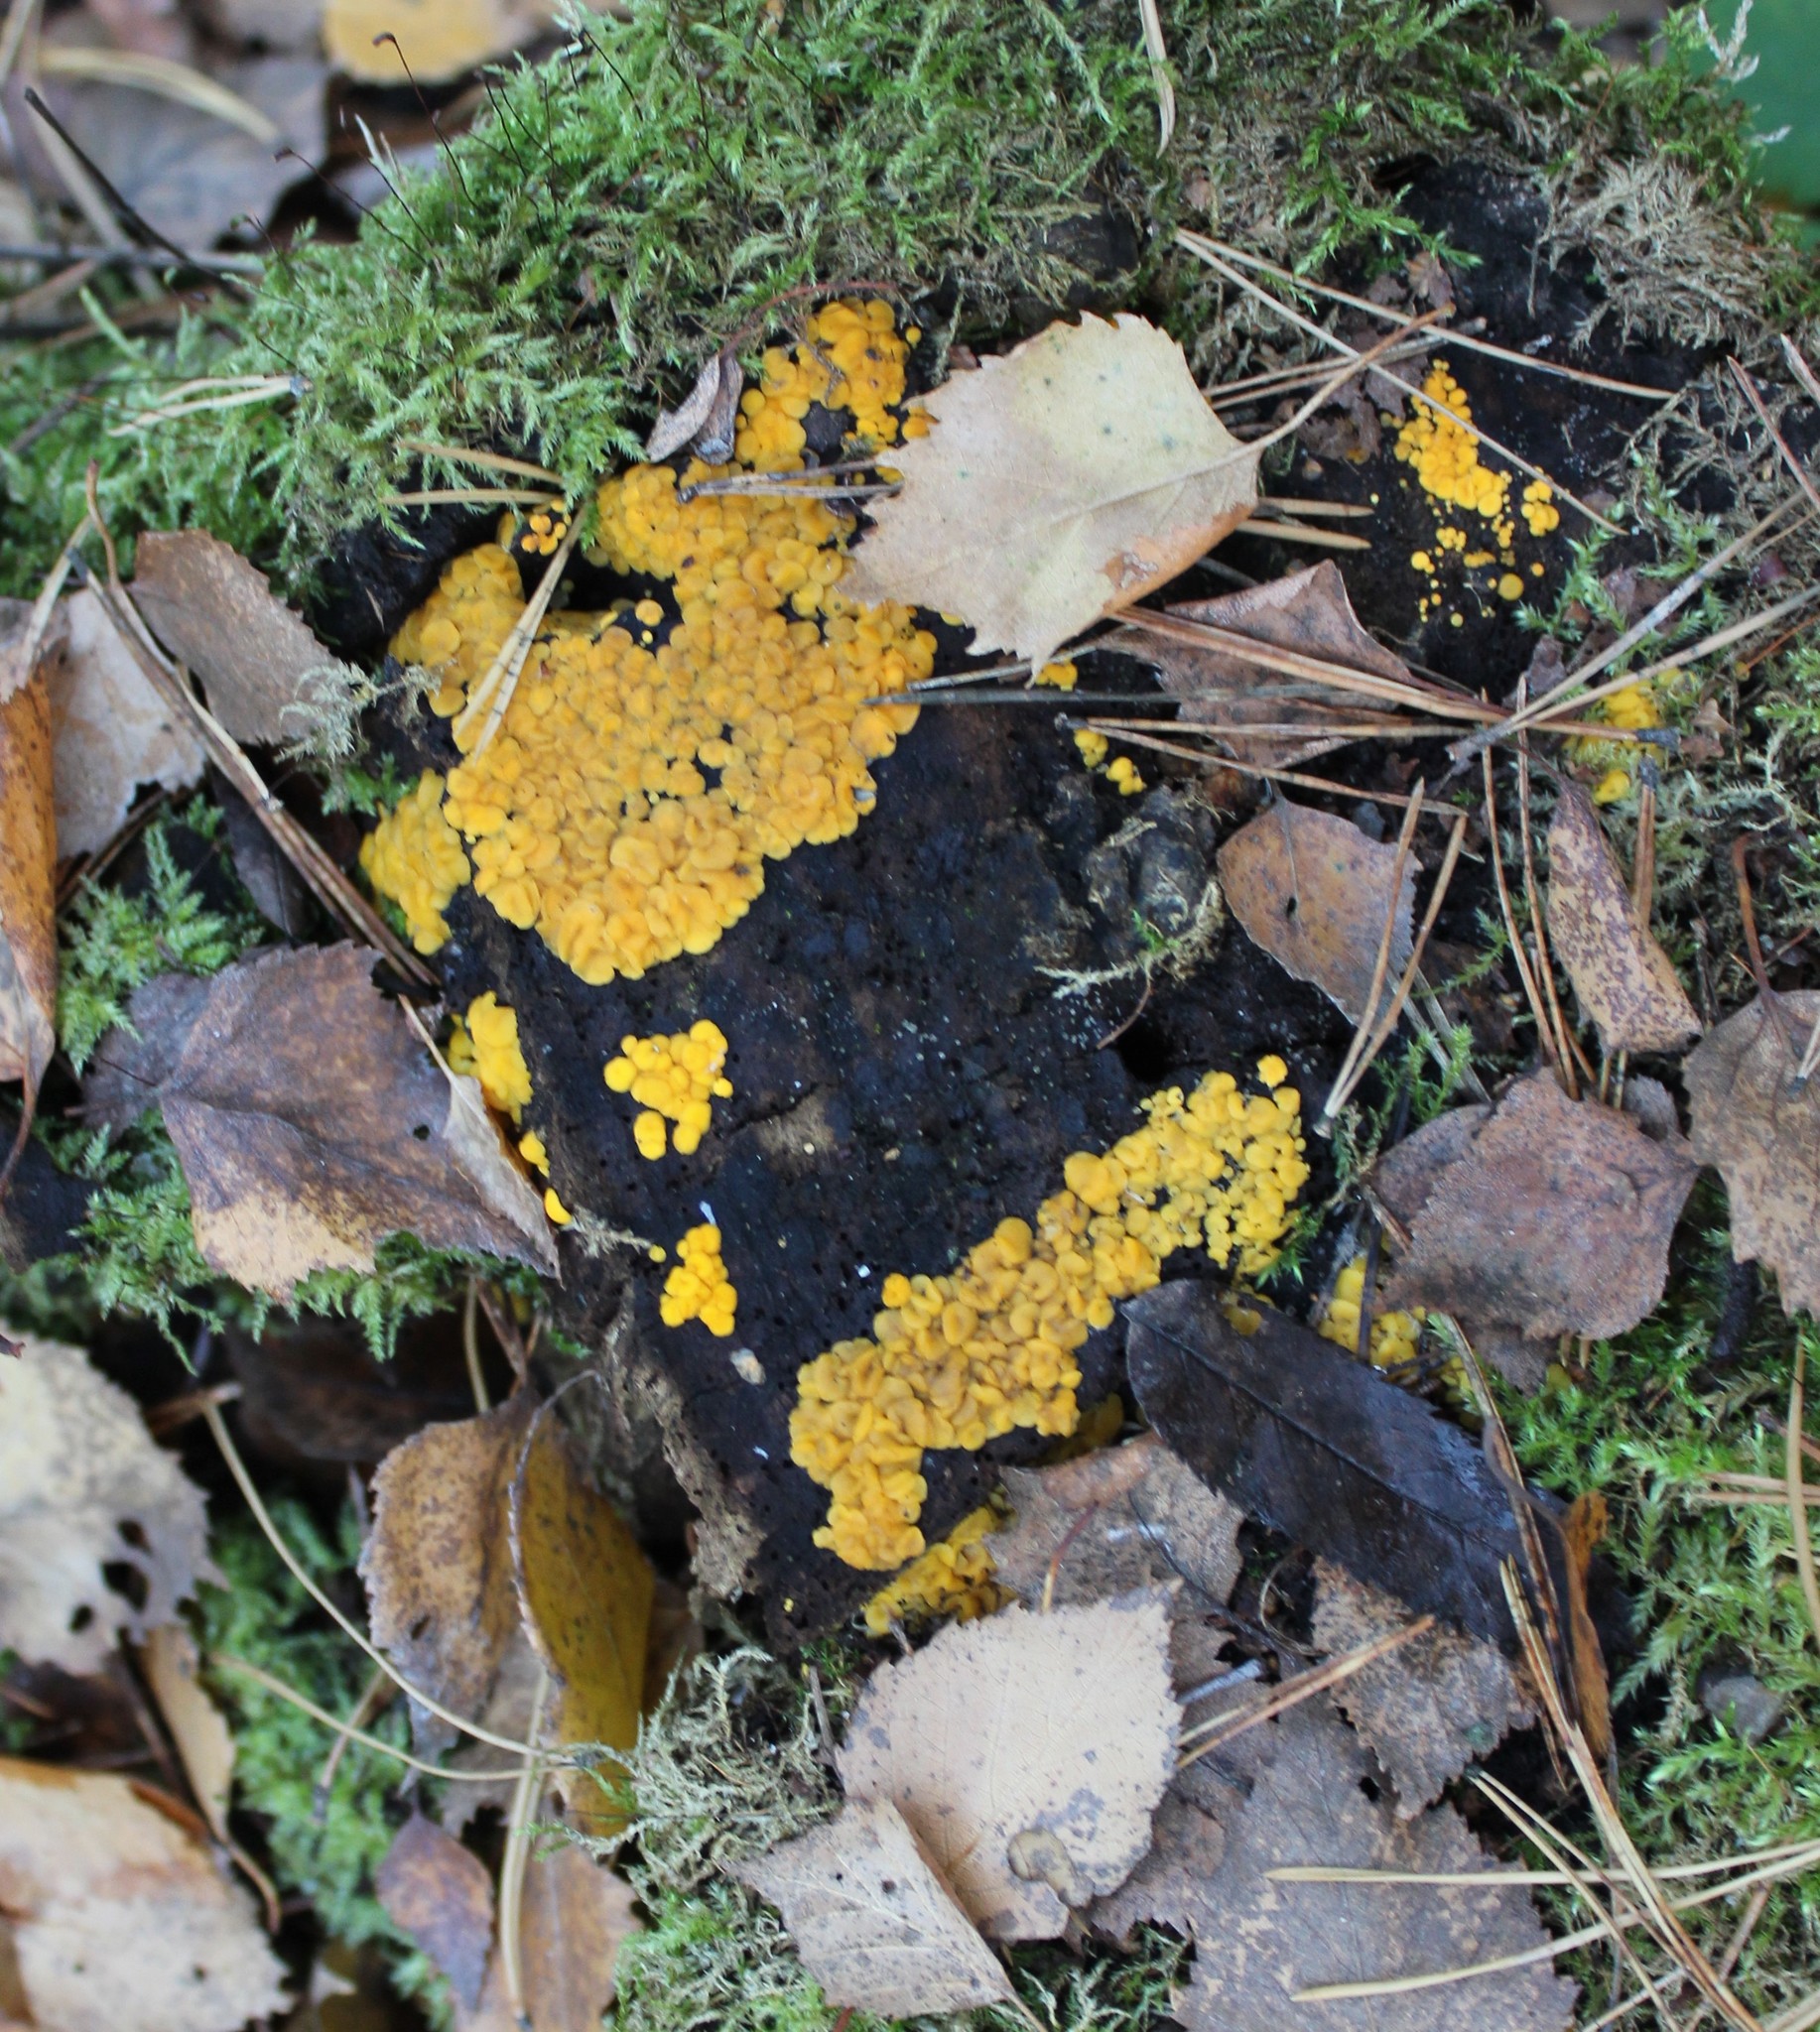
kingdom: Fungi
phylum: Ascomycota
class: Leotiomycetes
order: Helotiales
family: Pezizellaceae
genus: Calycina
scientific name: Calycina citrina
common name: Yellow fairy cups
